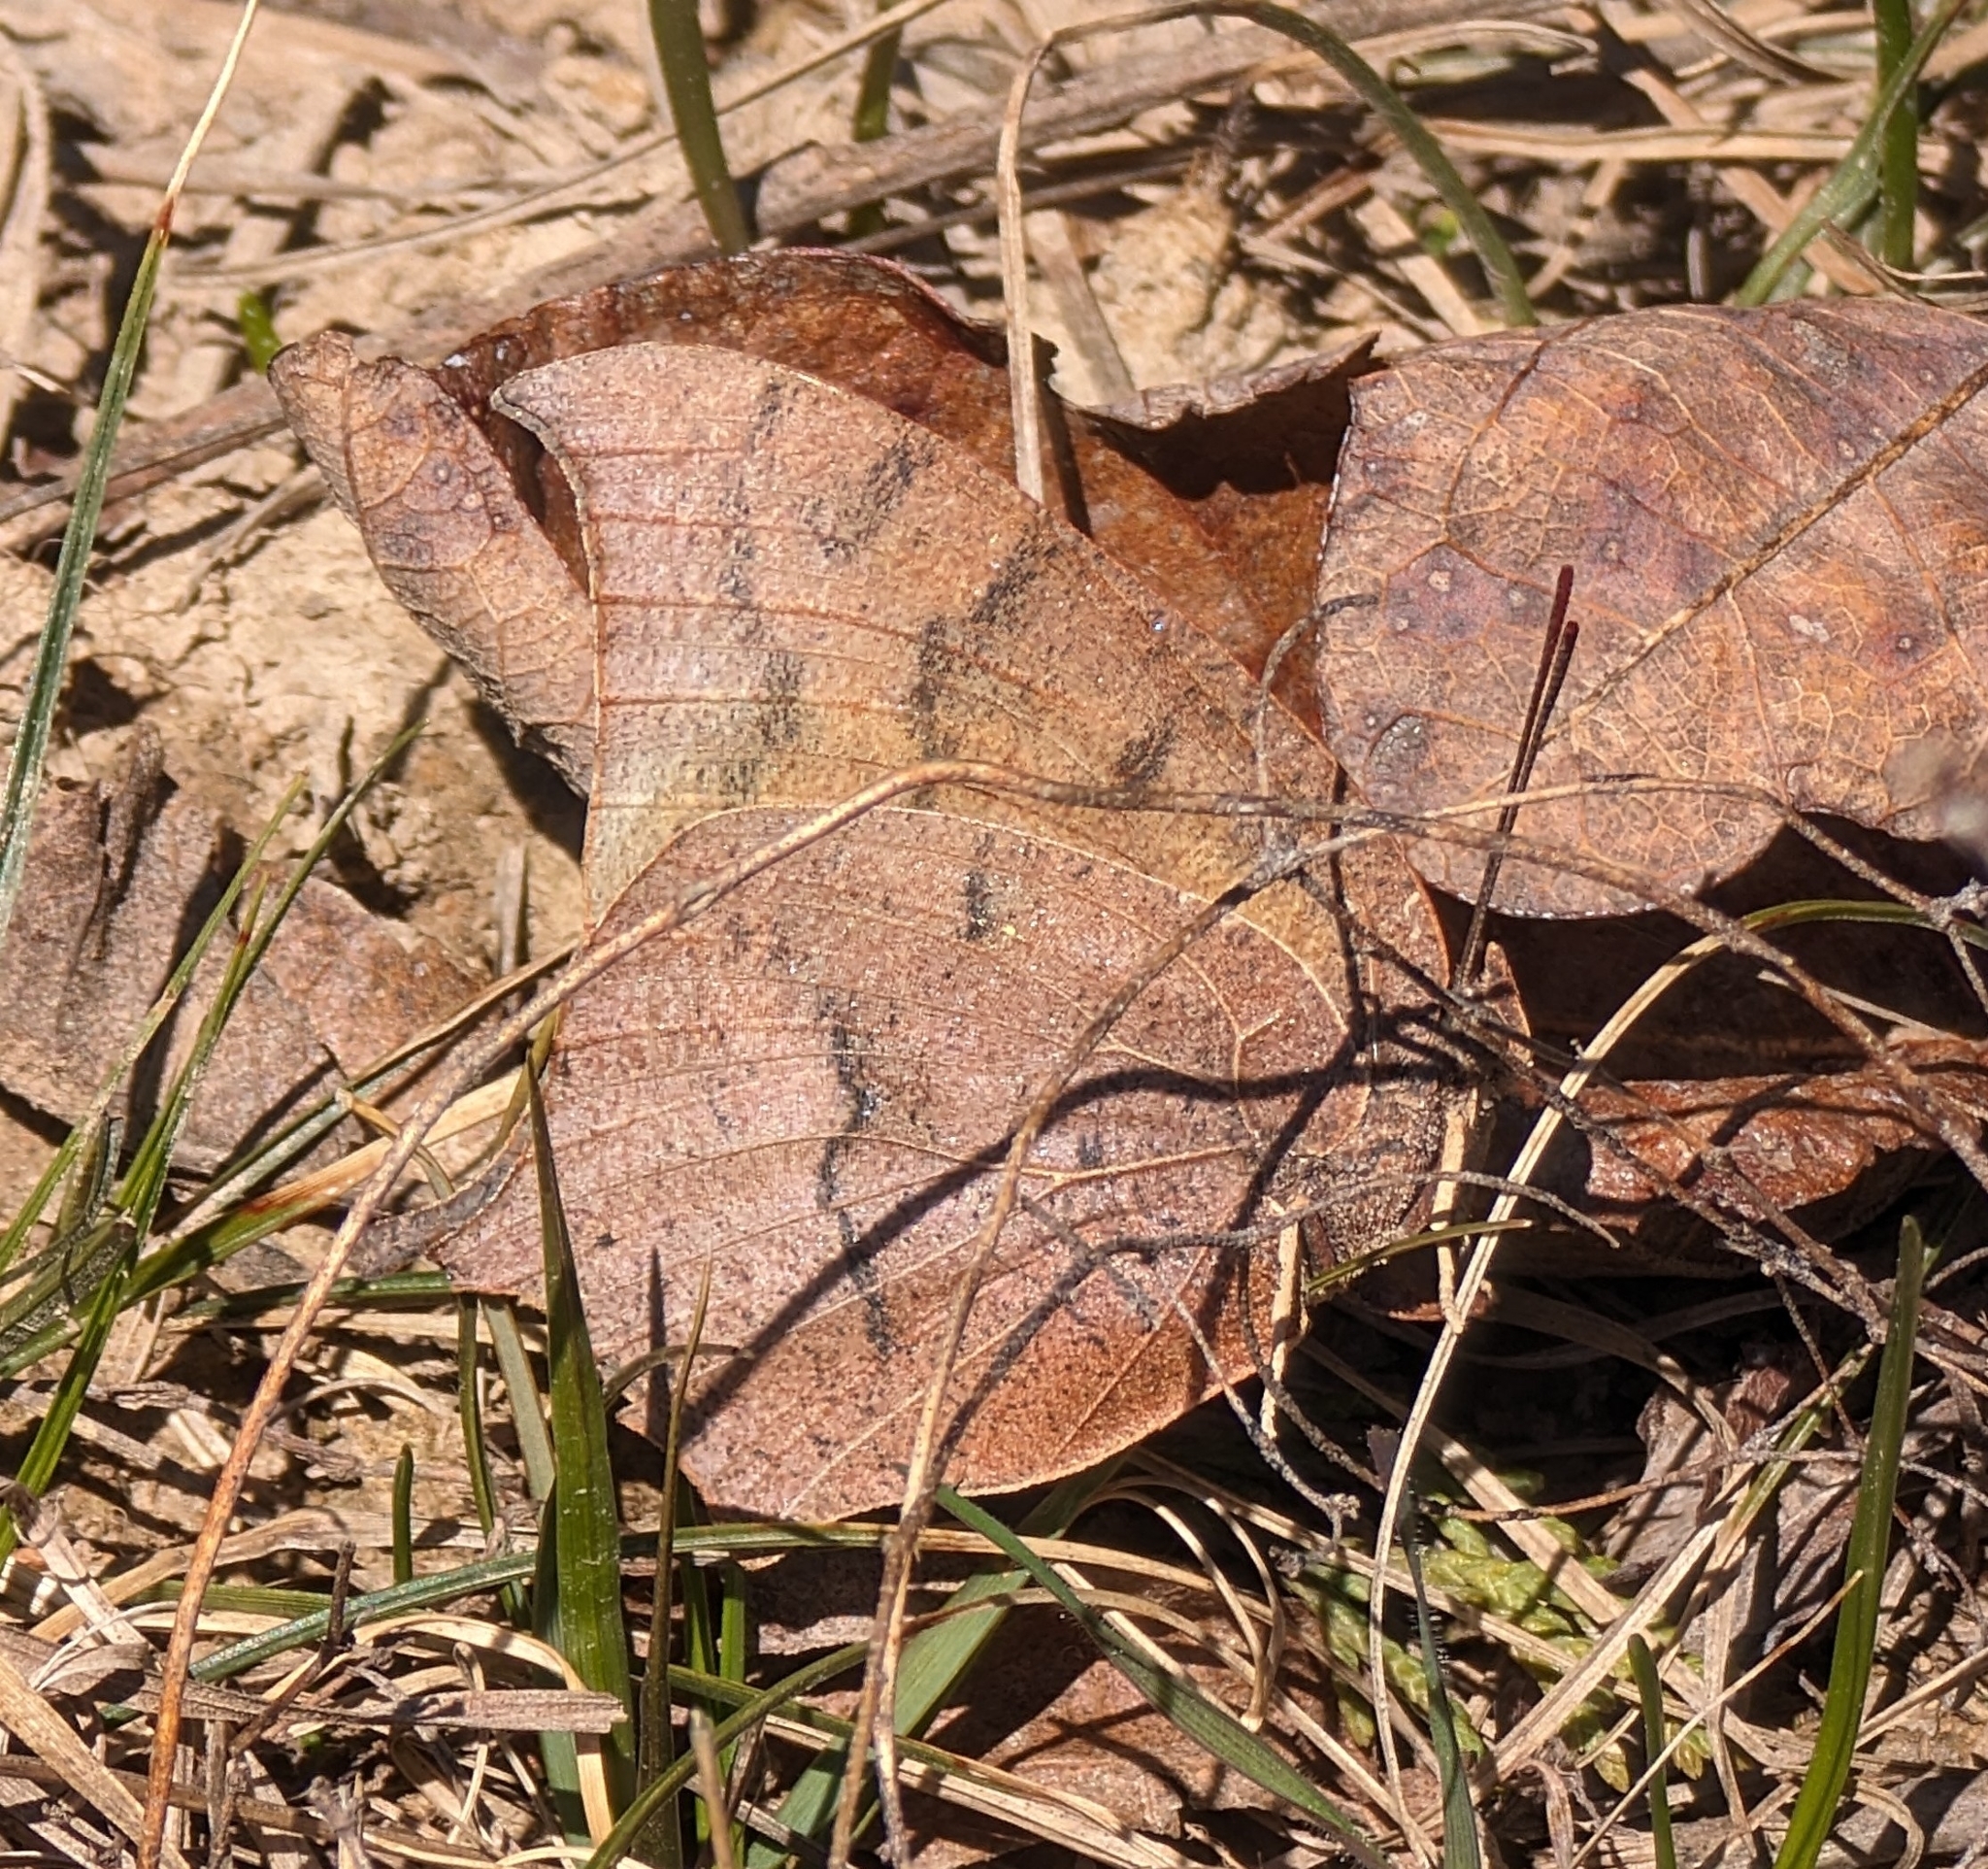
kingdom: Animalia
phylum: Arthropoda
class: Insecta
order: Lepidoptera
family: Nymphalidae
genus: Anaea
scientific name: Anaea andria
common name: Goatweed leafwing
